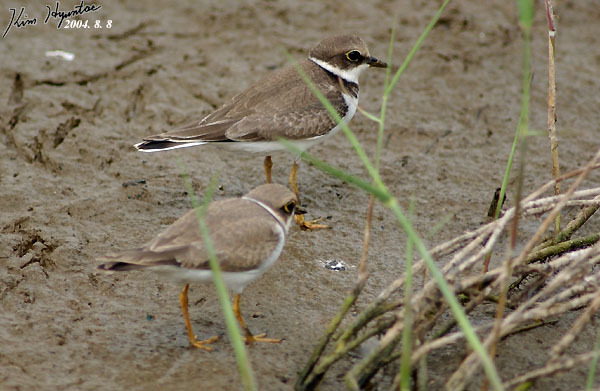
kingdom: Animalia
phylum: Chordata
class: Aves
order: Charadriiformes
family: Charadriidae
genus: Charadrius
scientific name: Charadrius dubius
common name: Little ringed plover
